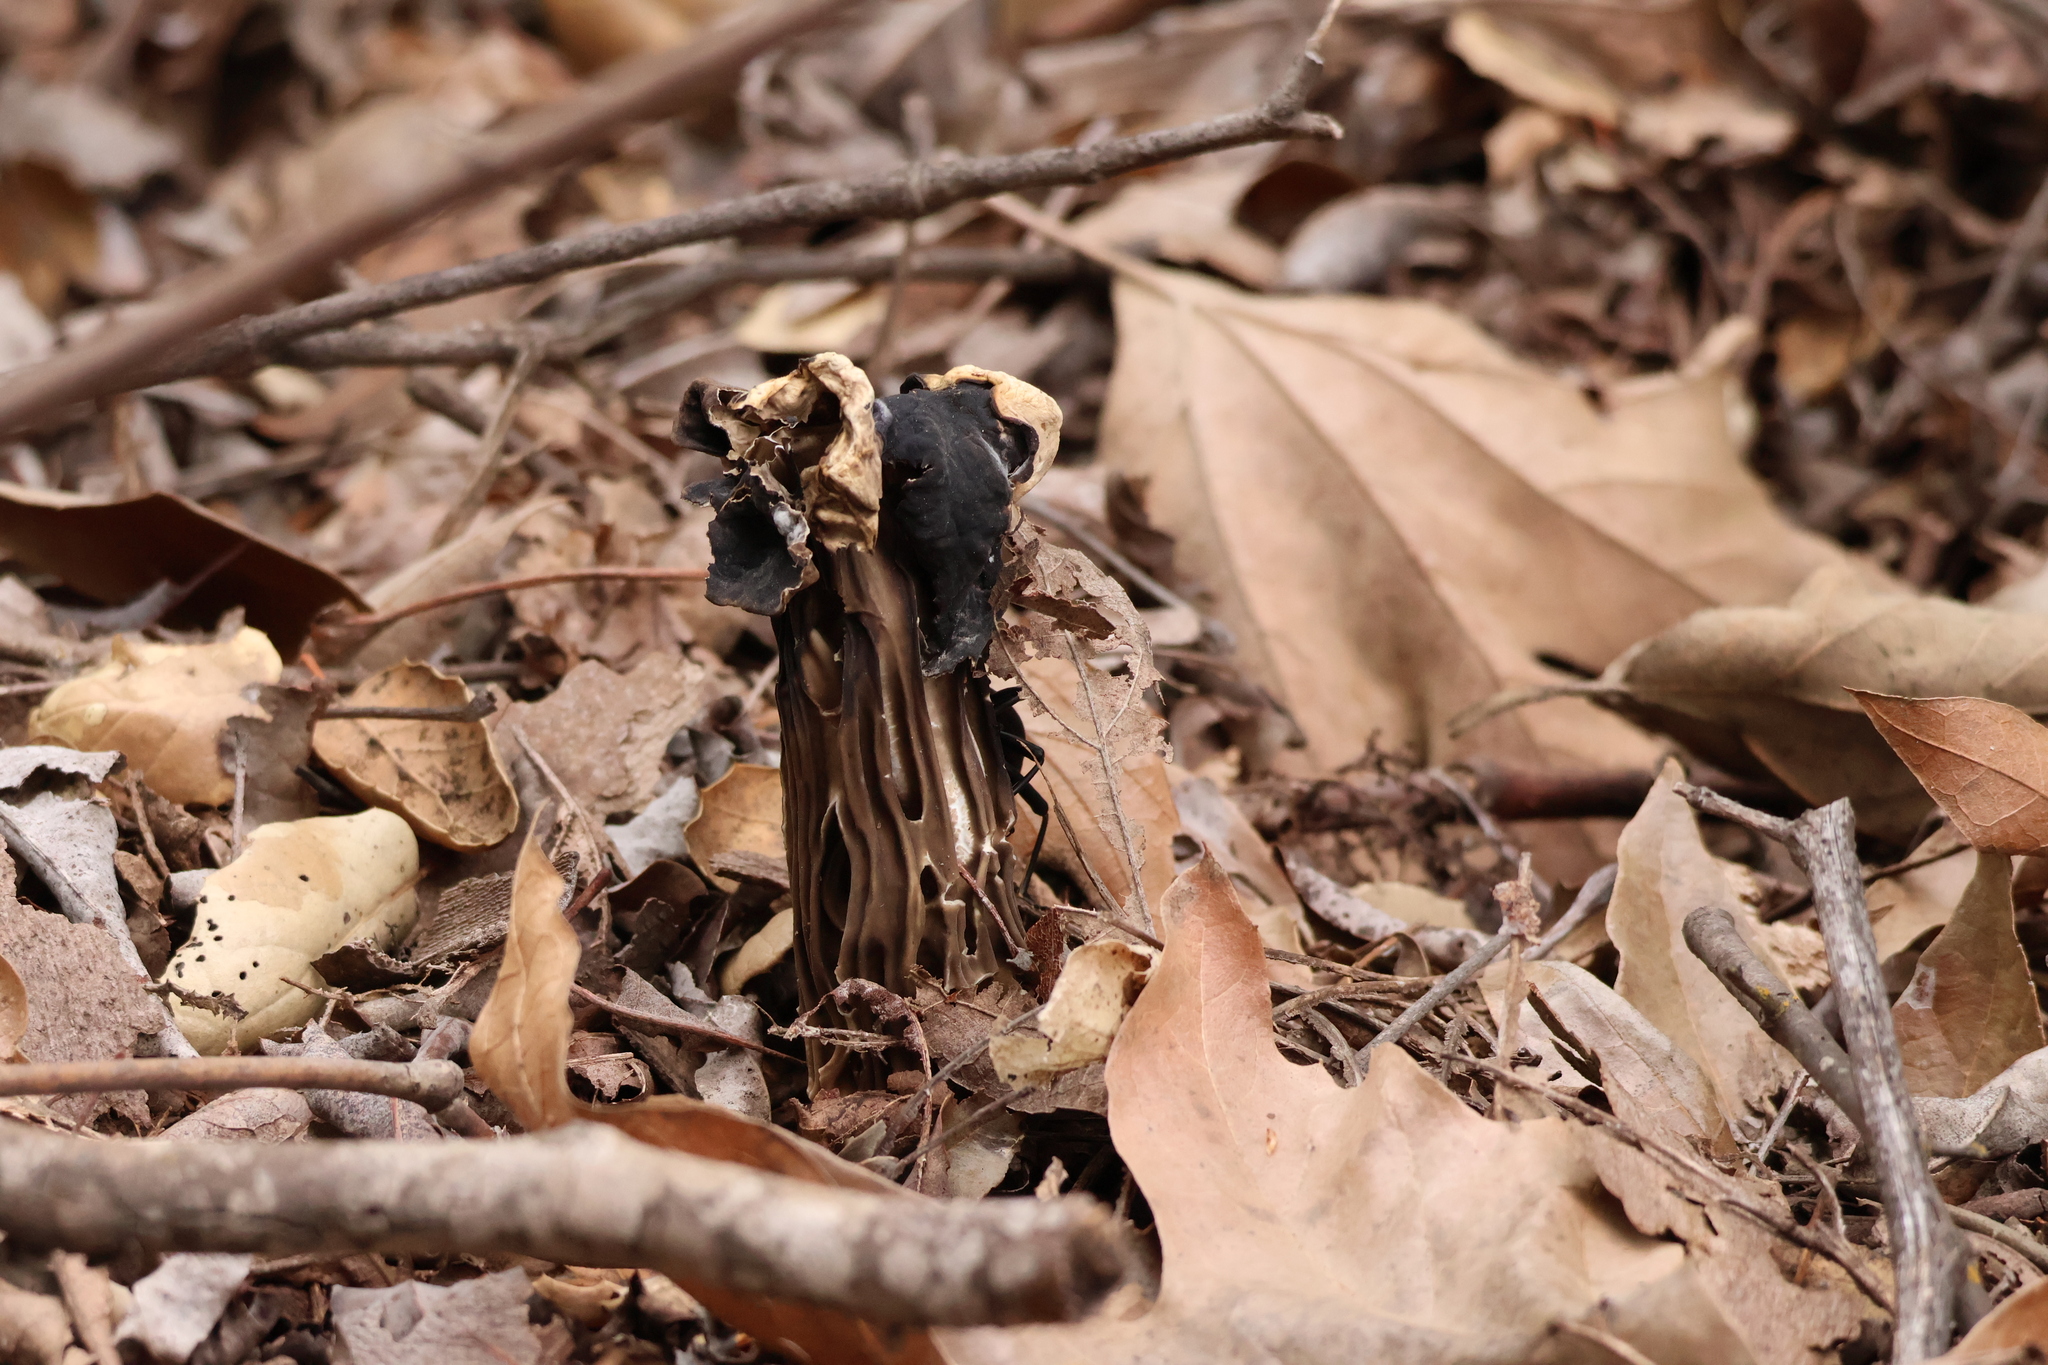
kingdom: Fungi
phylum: Ascomycota
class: Pezizomycetes
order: Pezizales
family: Helvellaceae
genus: Helvella
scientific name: Helvella dryophila
